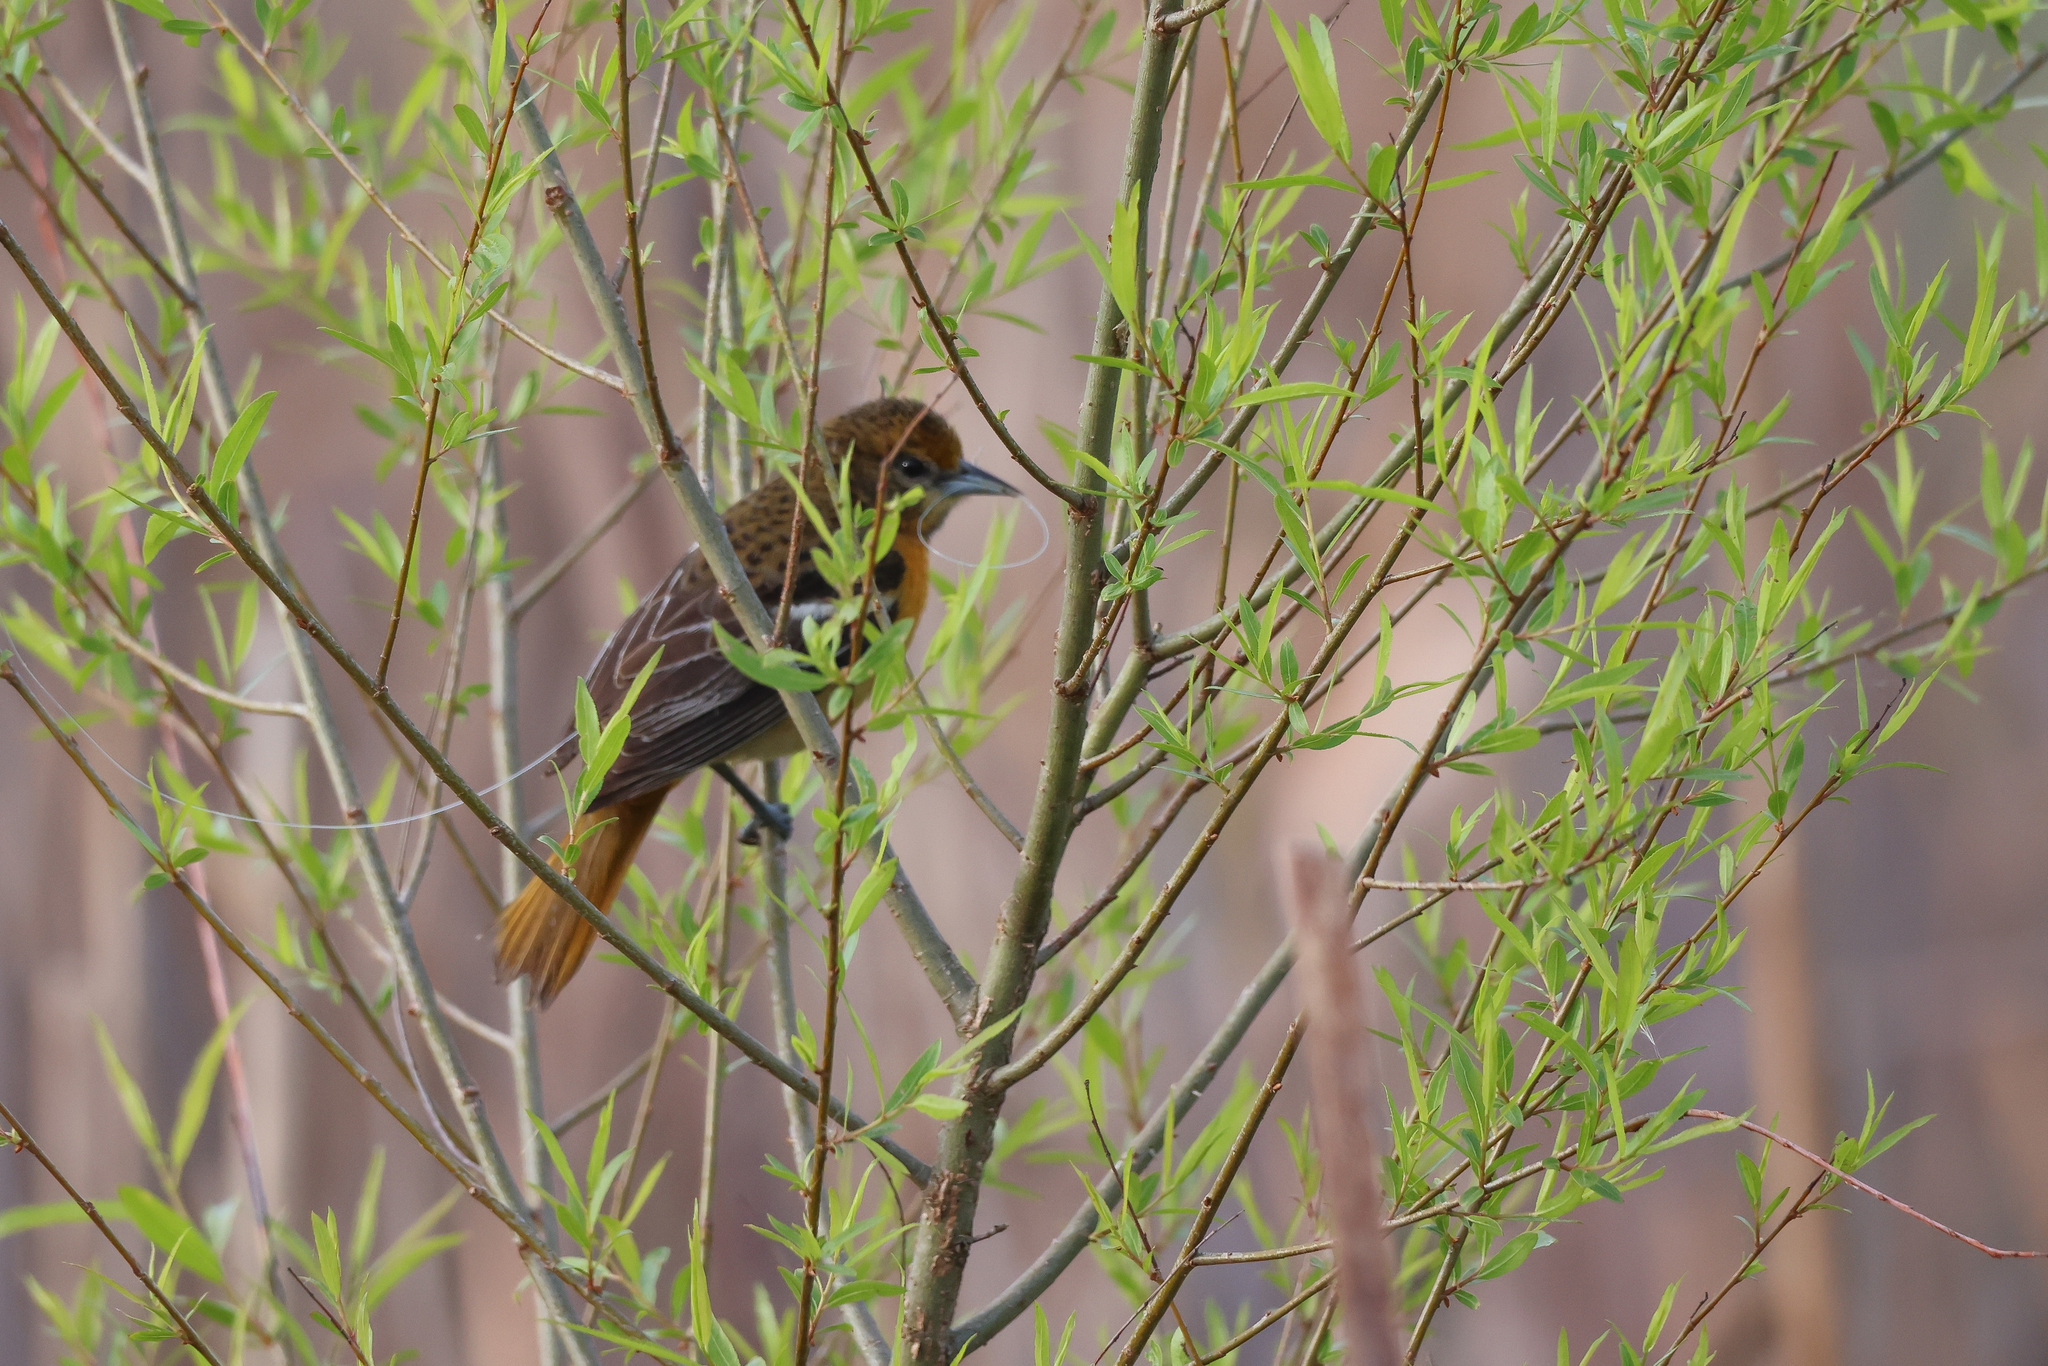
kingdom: Animalia
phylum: Chordata
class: Aves
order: Passeriformes
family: Icteridae
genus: Icterus
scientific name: Icterus galbula
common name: Baltimore oriole
